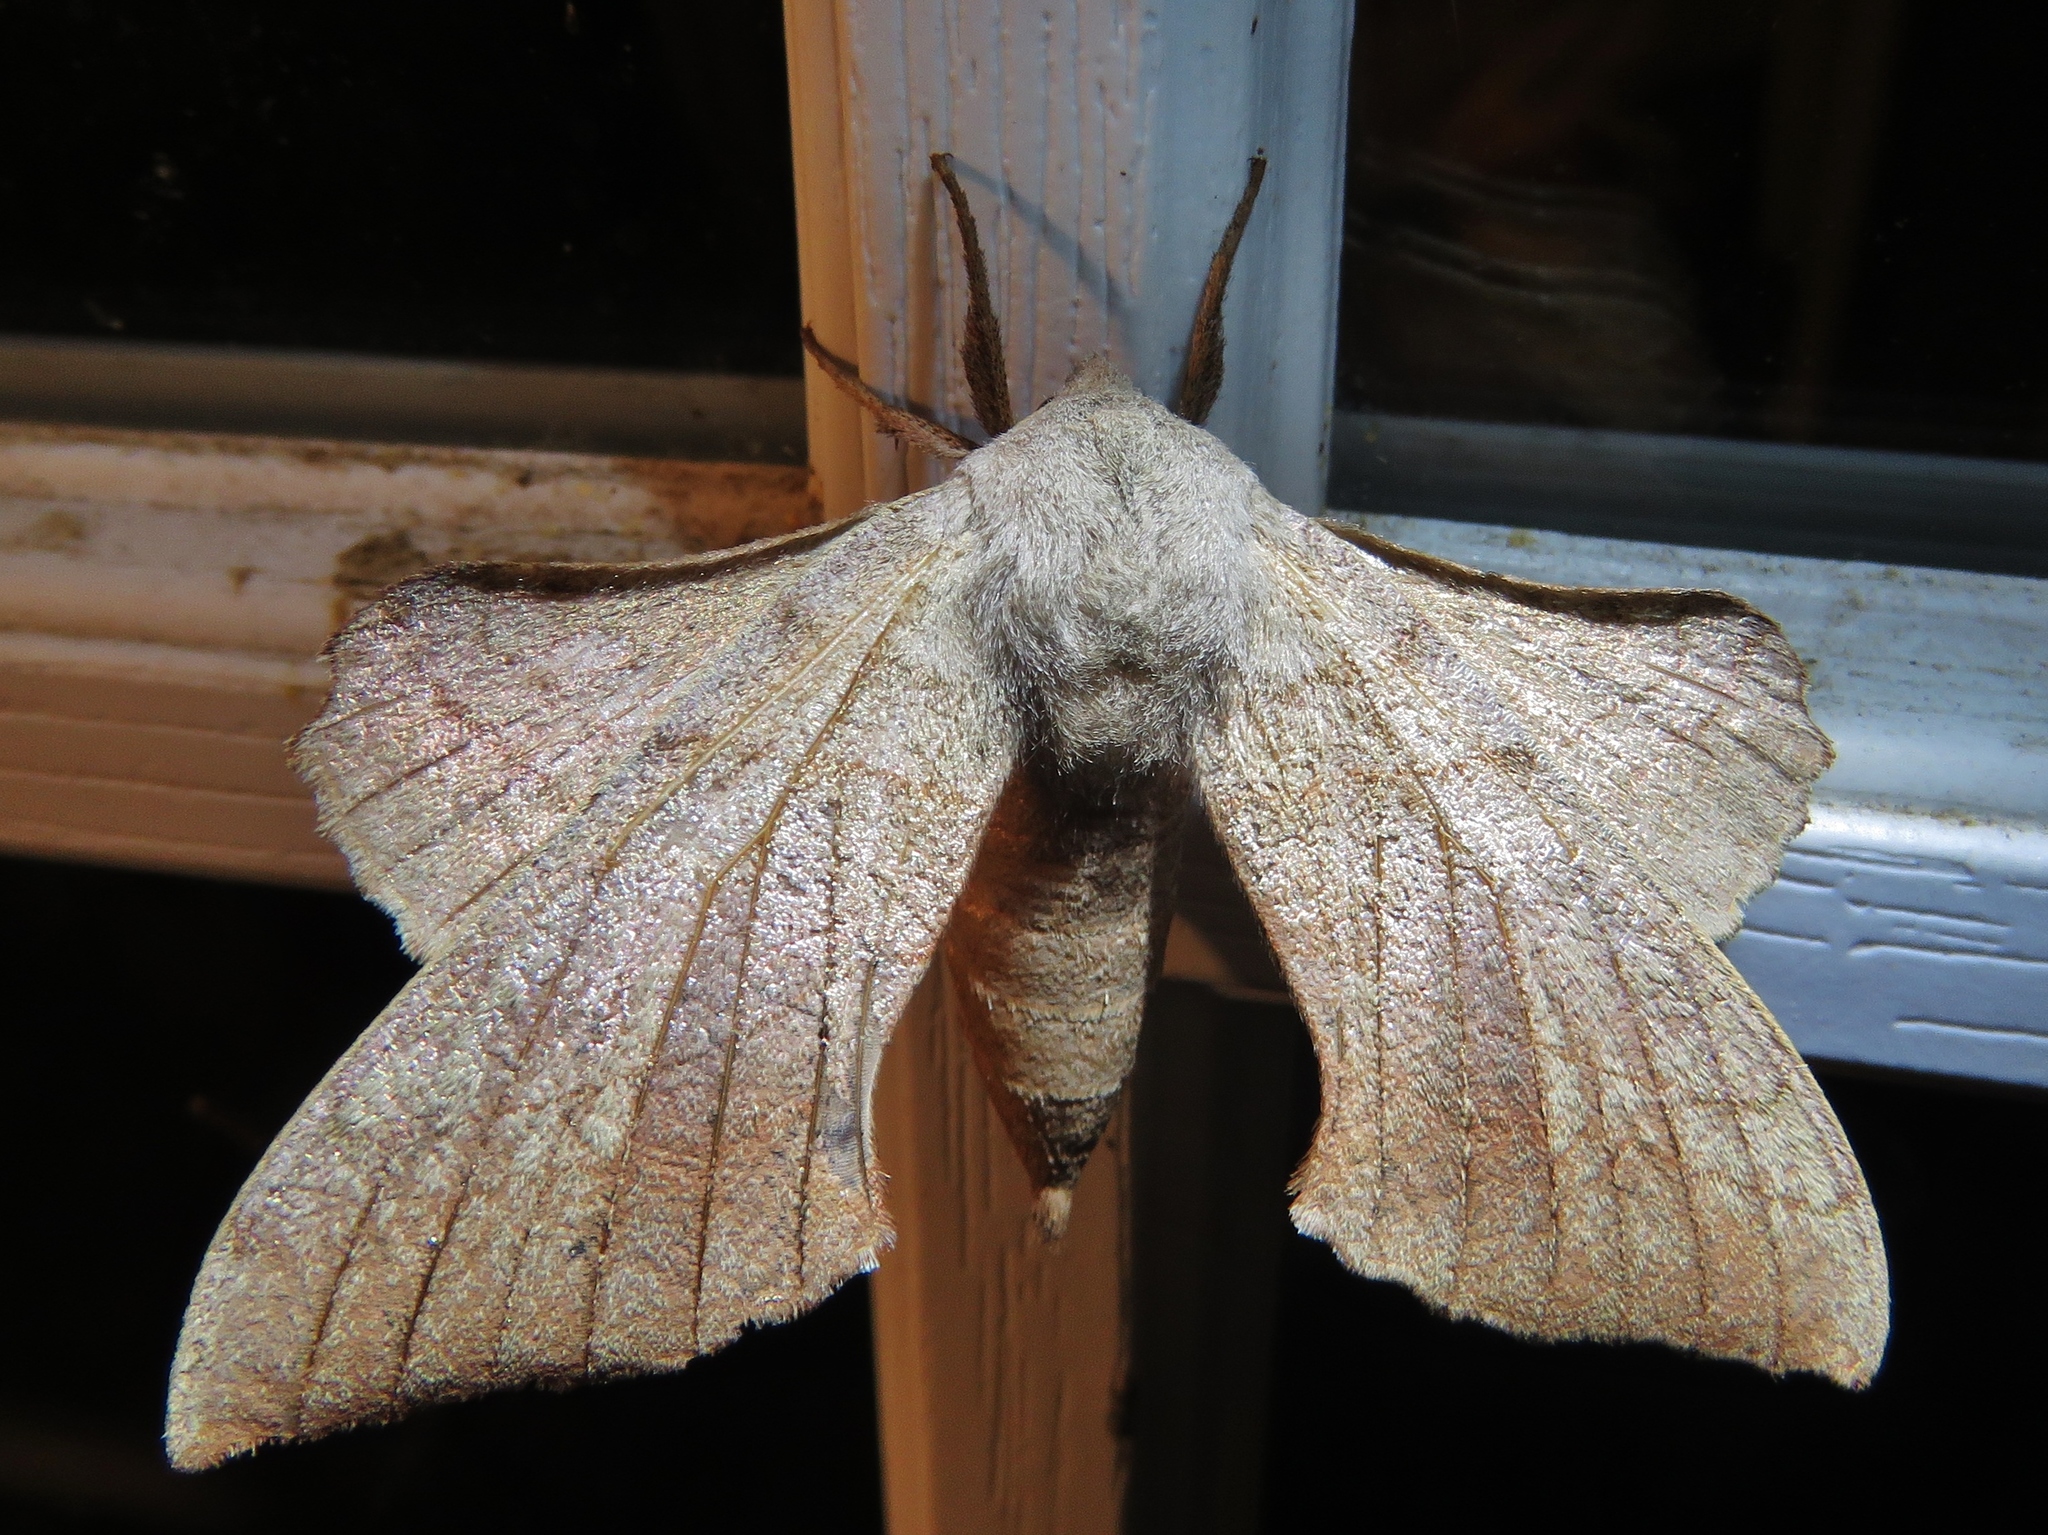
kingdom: Animalia
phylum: Arthropoda
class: Insecta
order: Lepidoptera
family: Sphingidae
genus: Amorpha
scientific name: Amorpha juglandis
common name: Walnut sphinx
